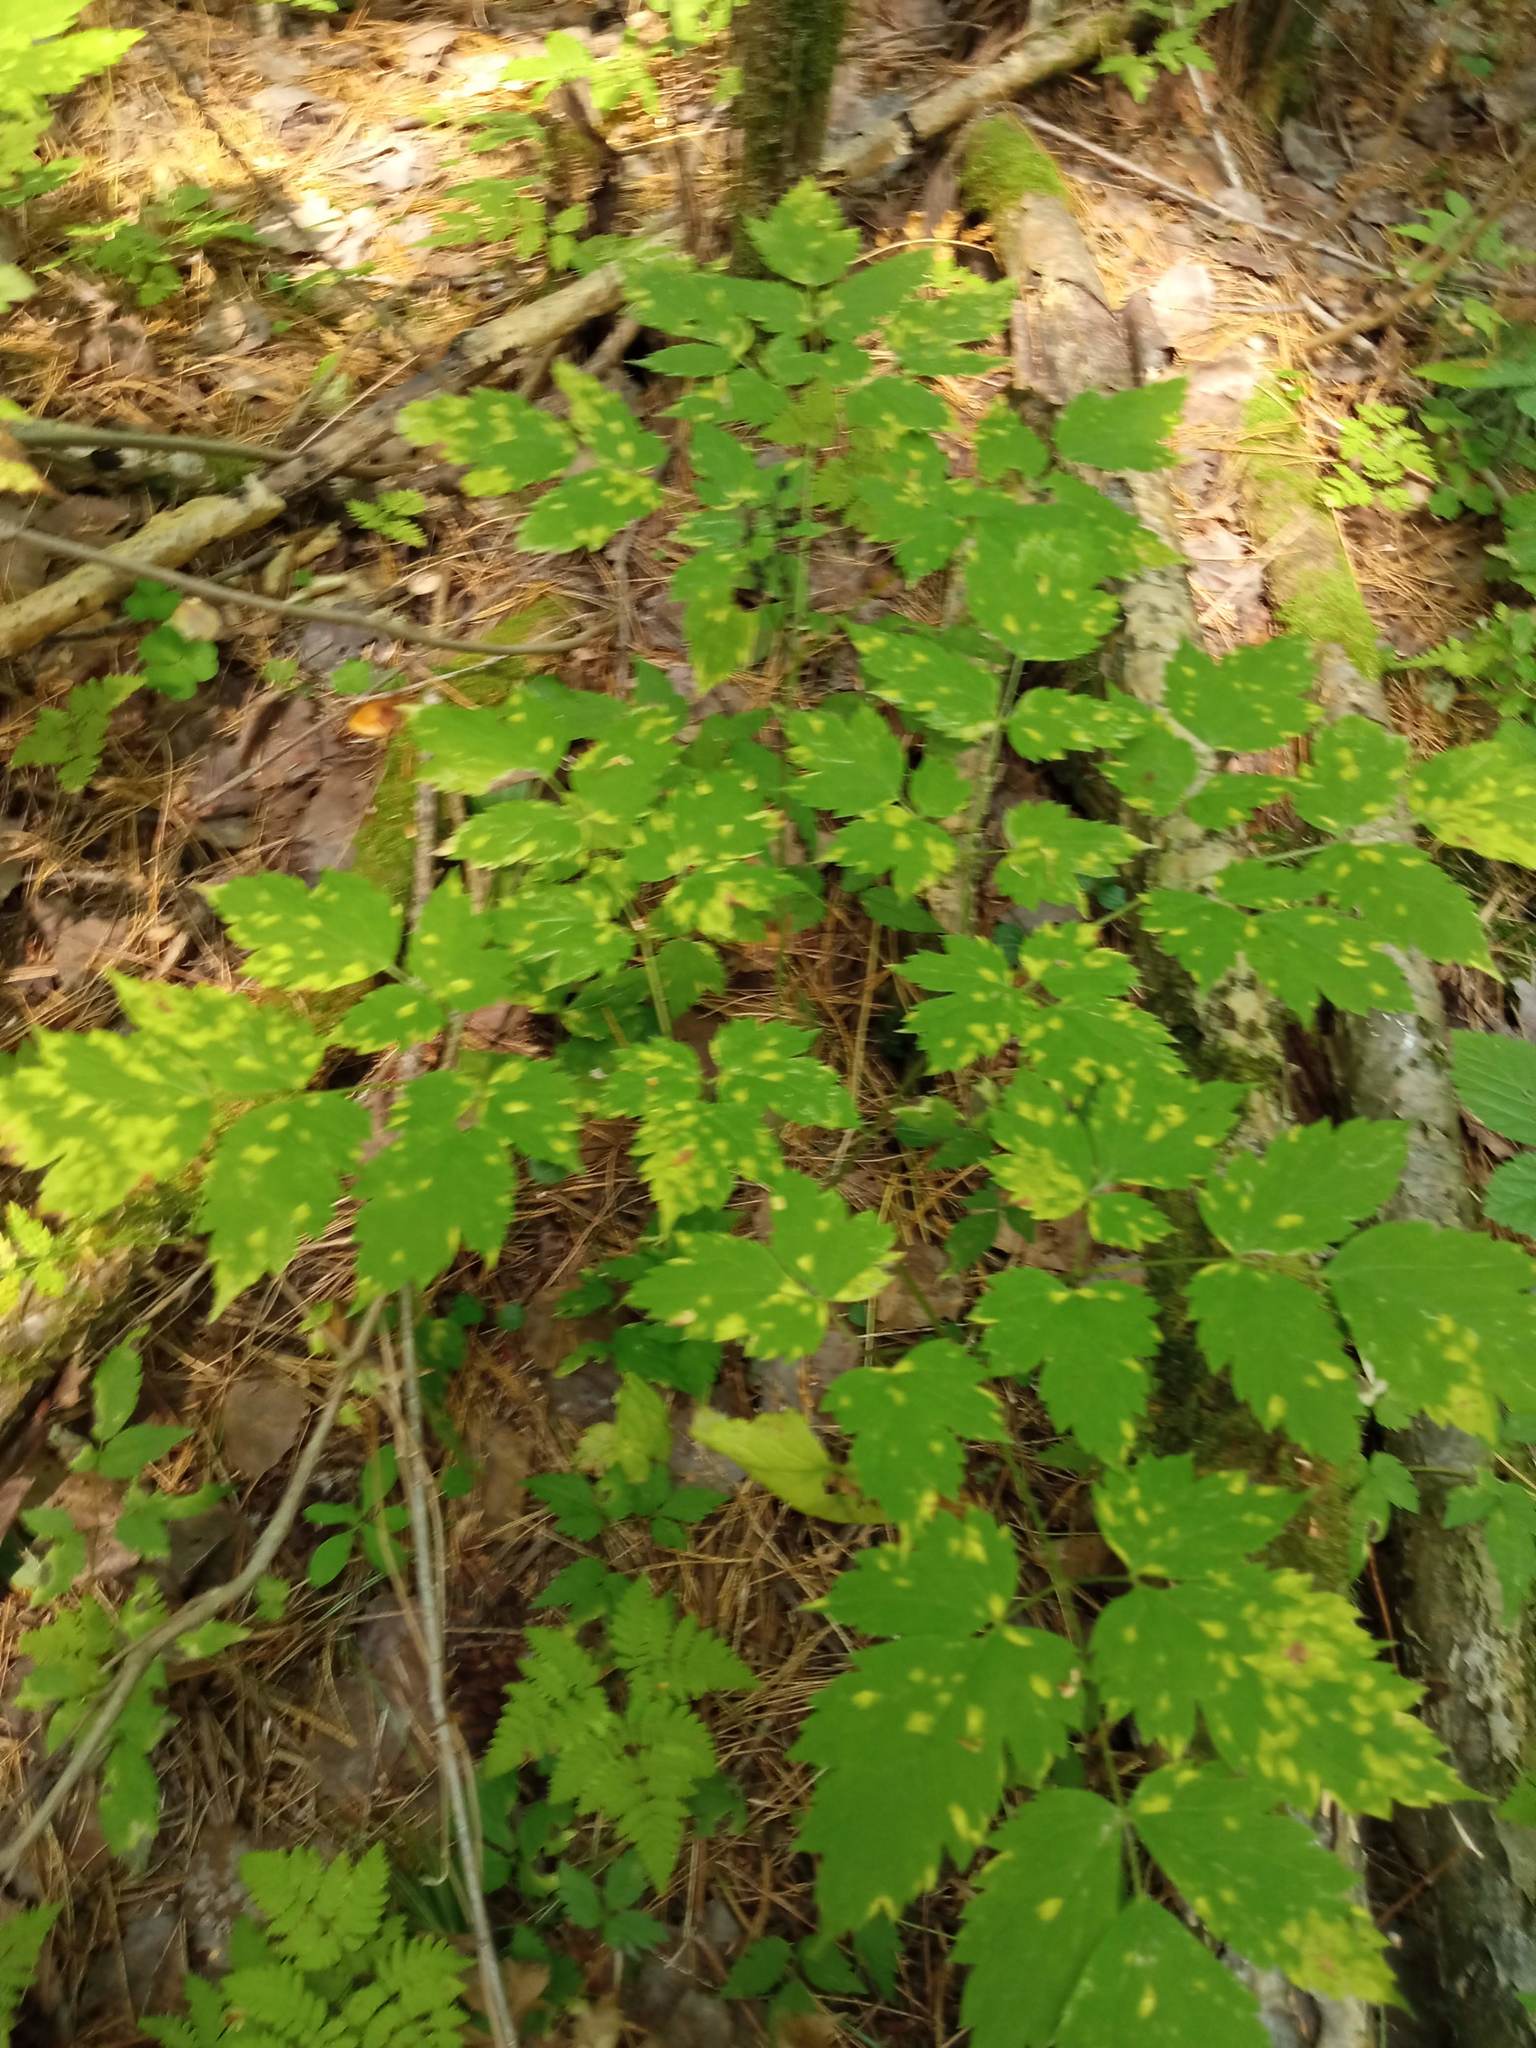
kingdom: Plantae
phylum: Tracheophyta
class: Magnoliopsida
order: Ranunculales
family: Ranunculaceae
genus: Actaea
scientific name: Actaea erythrocarpa
